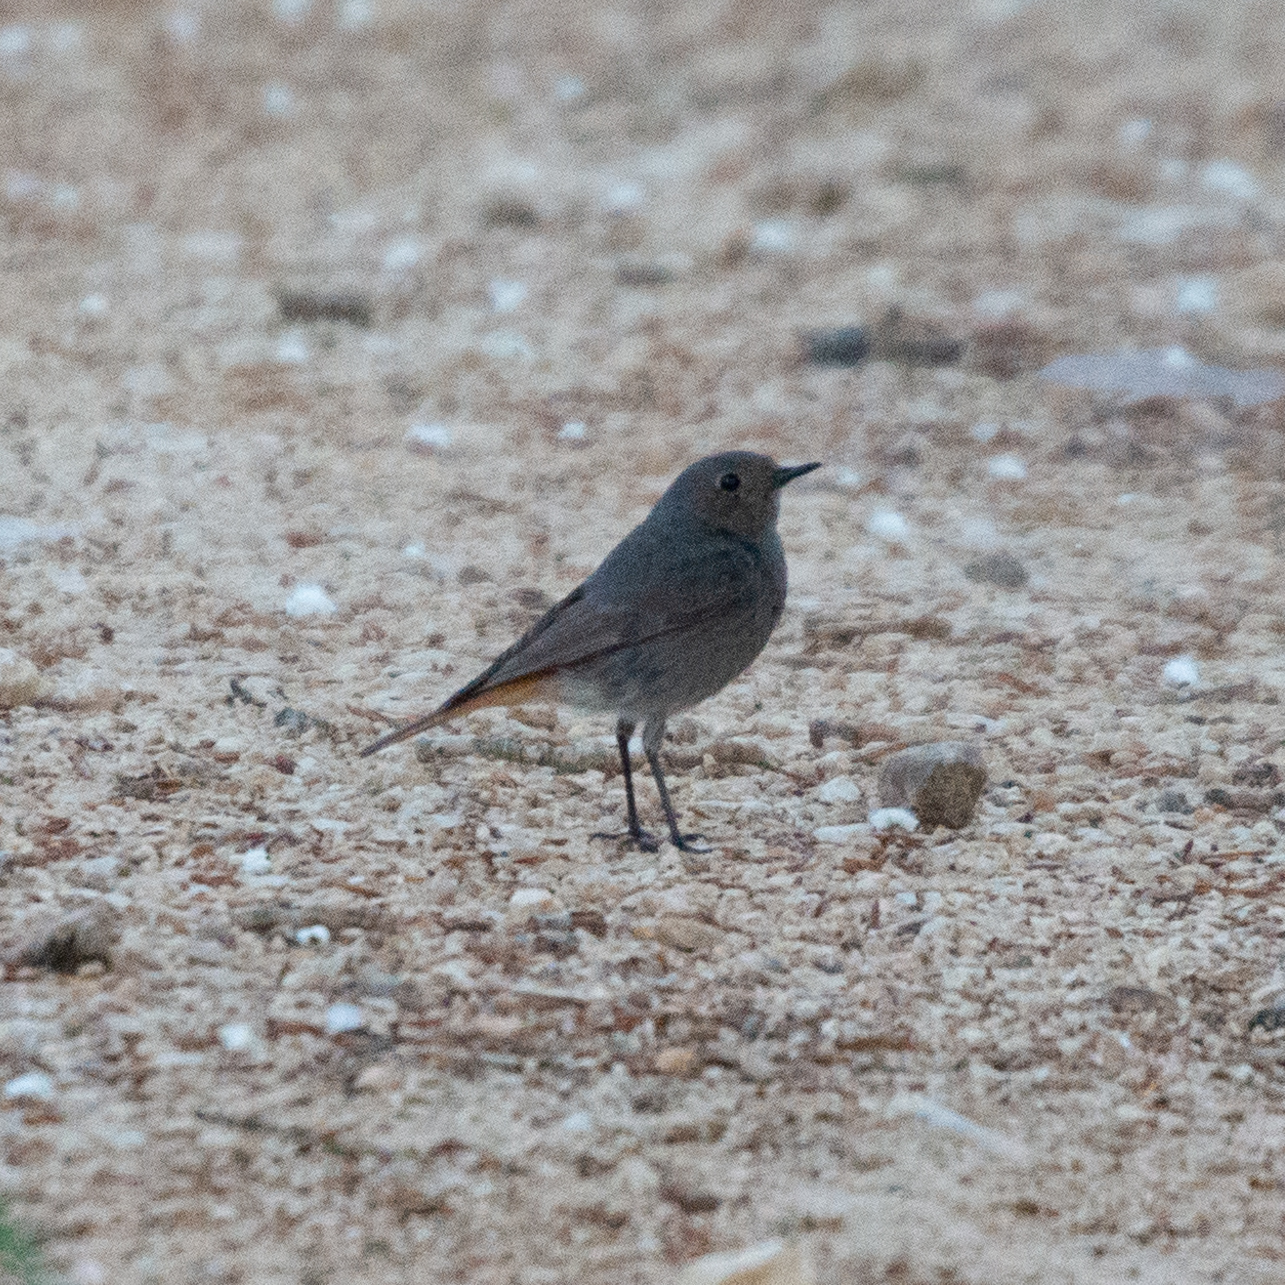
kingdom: Animalia
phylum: Chordata
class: Aves
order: Passeriformes
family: Muscicapidae
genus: Phoenicurus
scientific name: Phoenicurus ochruros
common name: Black redstart
